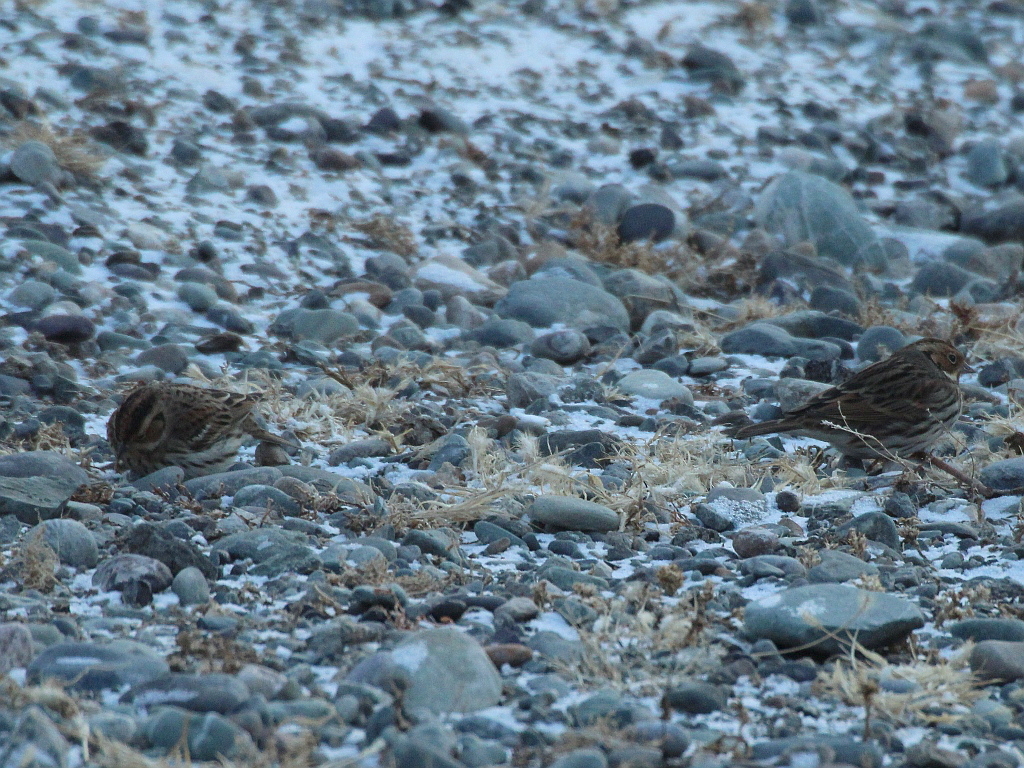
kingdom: Animalia
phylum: Chordata
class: Aves
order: Passeriformes
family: Emberizidae
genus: Emberiza
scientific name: Emberiza pusilla
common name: Little bunting
